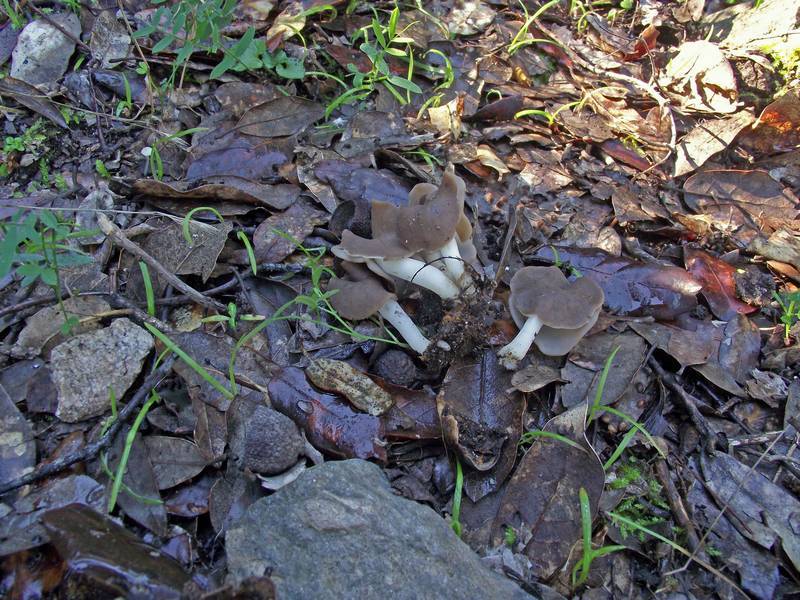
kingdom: Fungi
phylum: Ascomycota
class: Pezizomycetes
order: Pezizales
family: Helvellaceae
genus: Helvella
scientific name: Helvella albella
